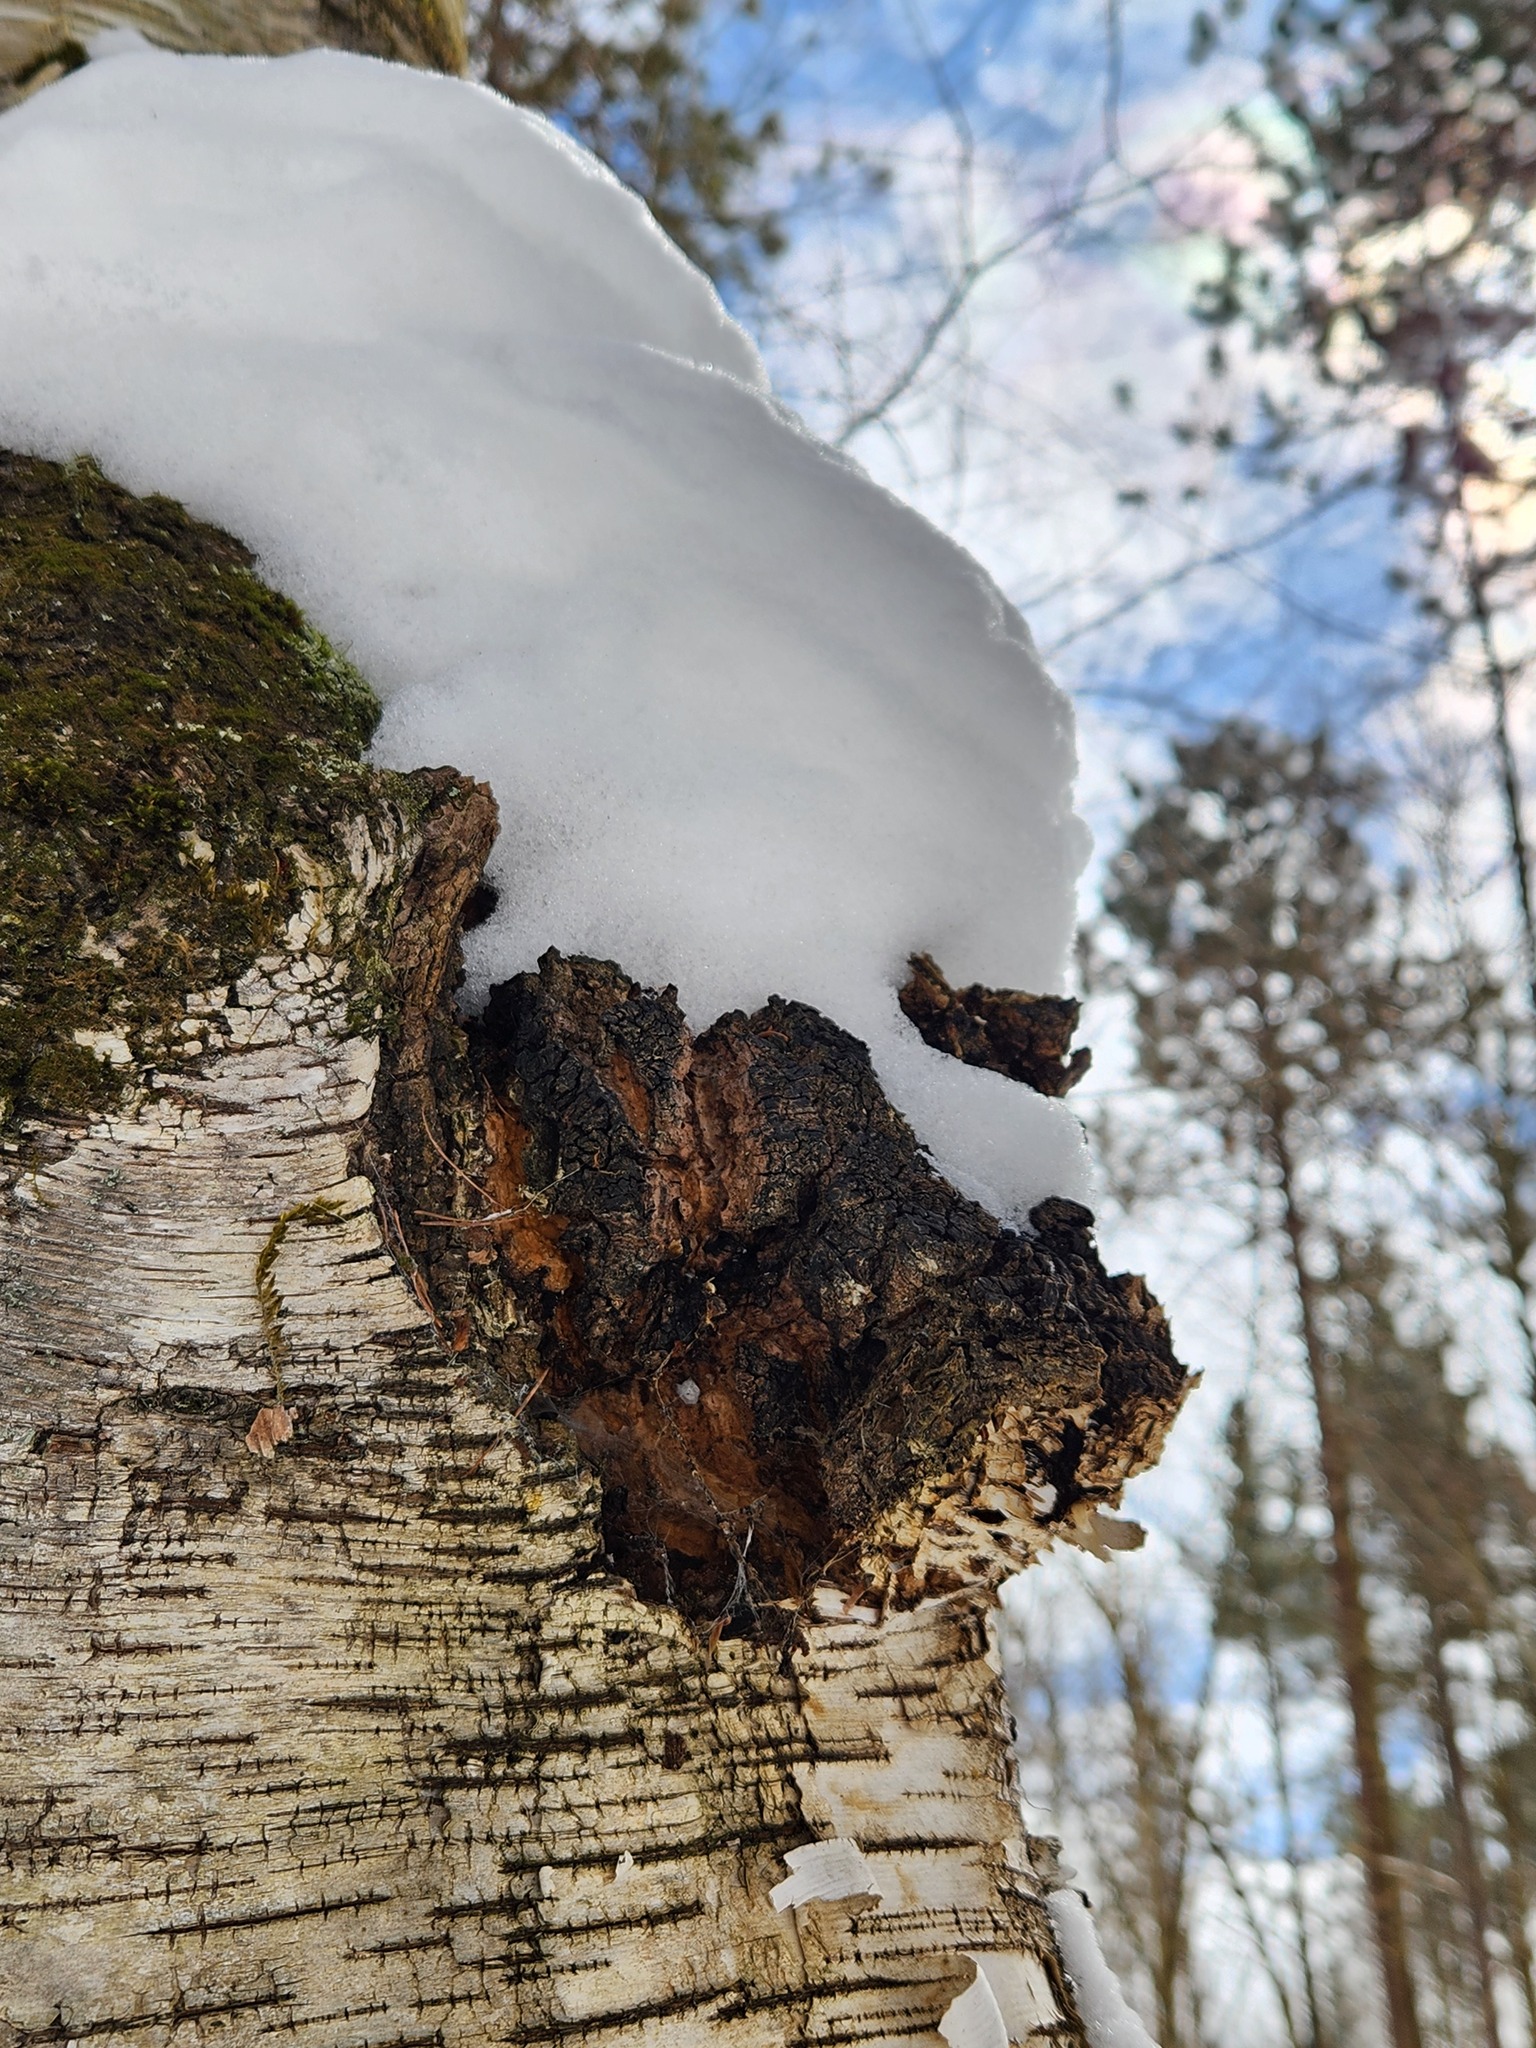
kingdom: Fungi
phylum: Basidiomycota
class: Agaricomycetes
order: Hymenochaetales
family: Hymenochaetaceae
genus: Inonotus
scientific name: Inonotus obliquus
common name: Chaga
